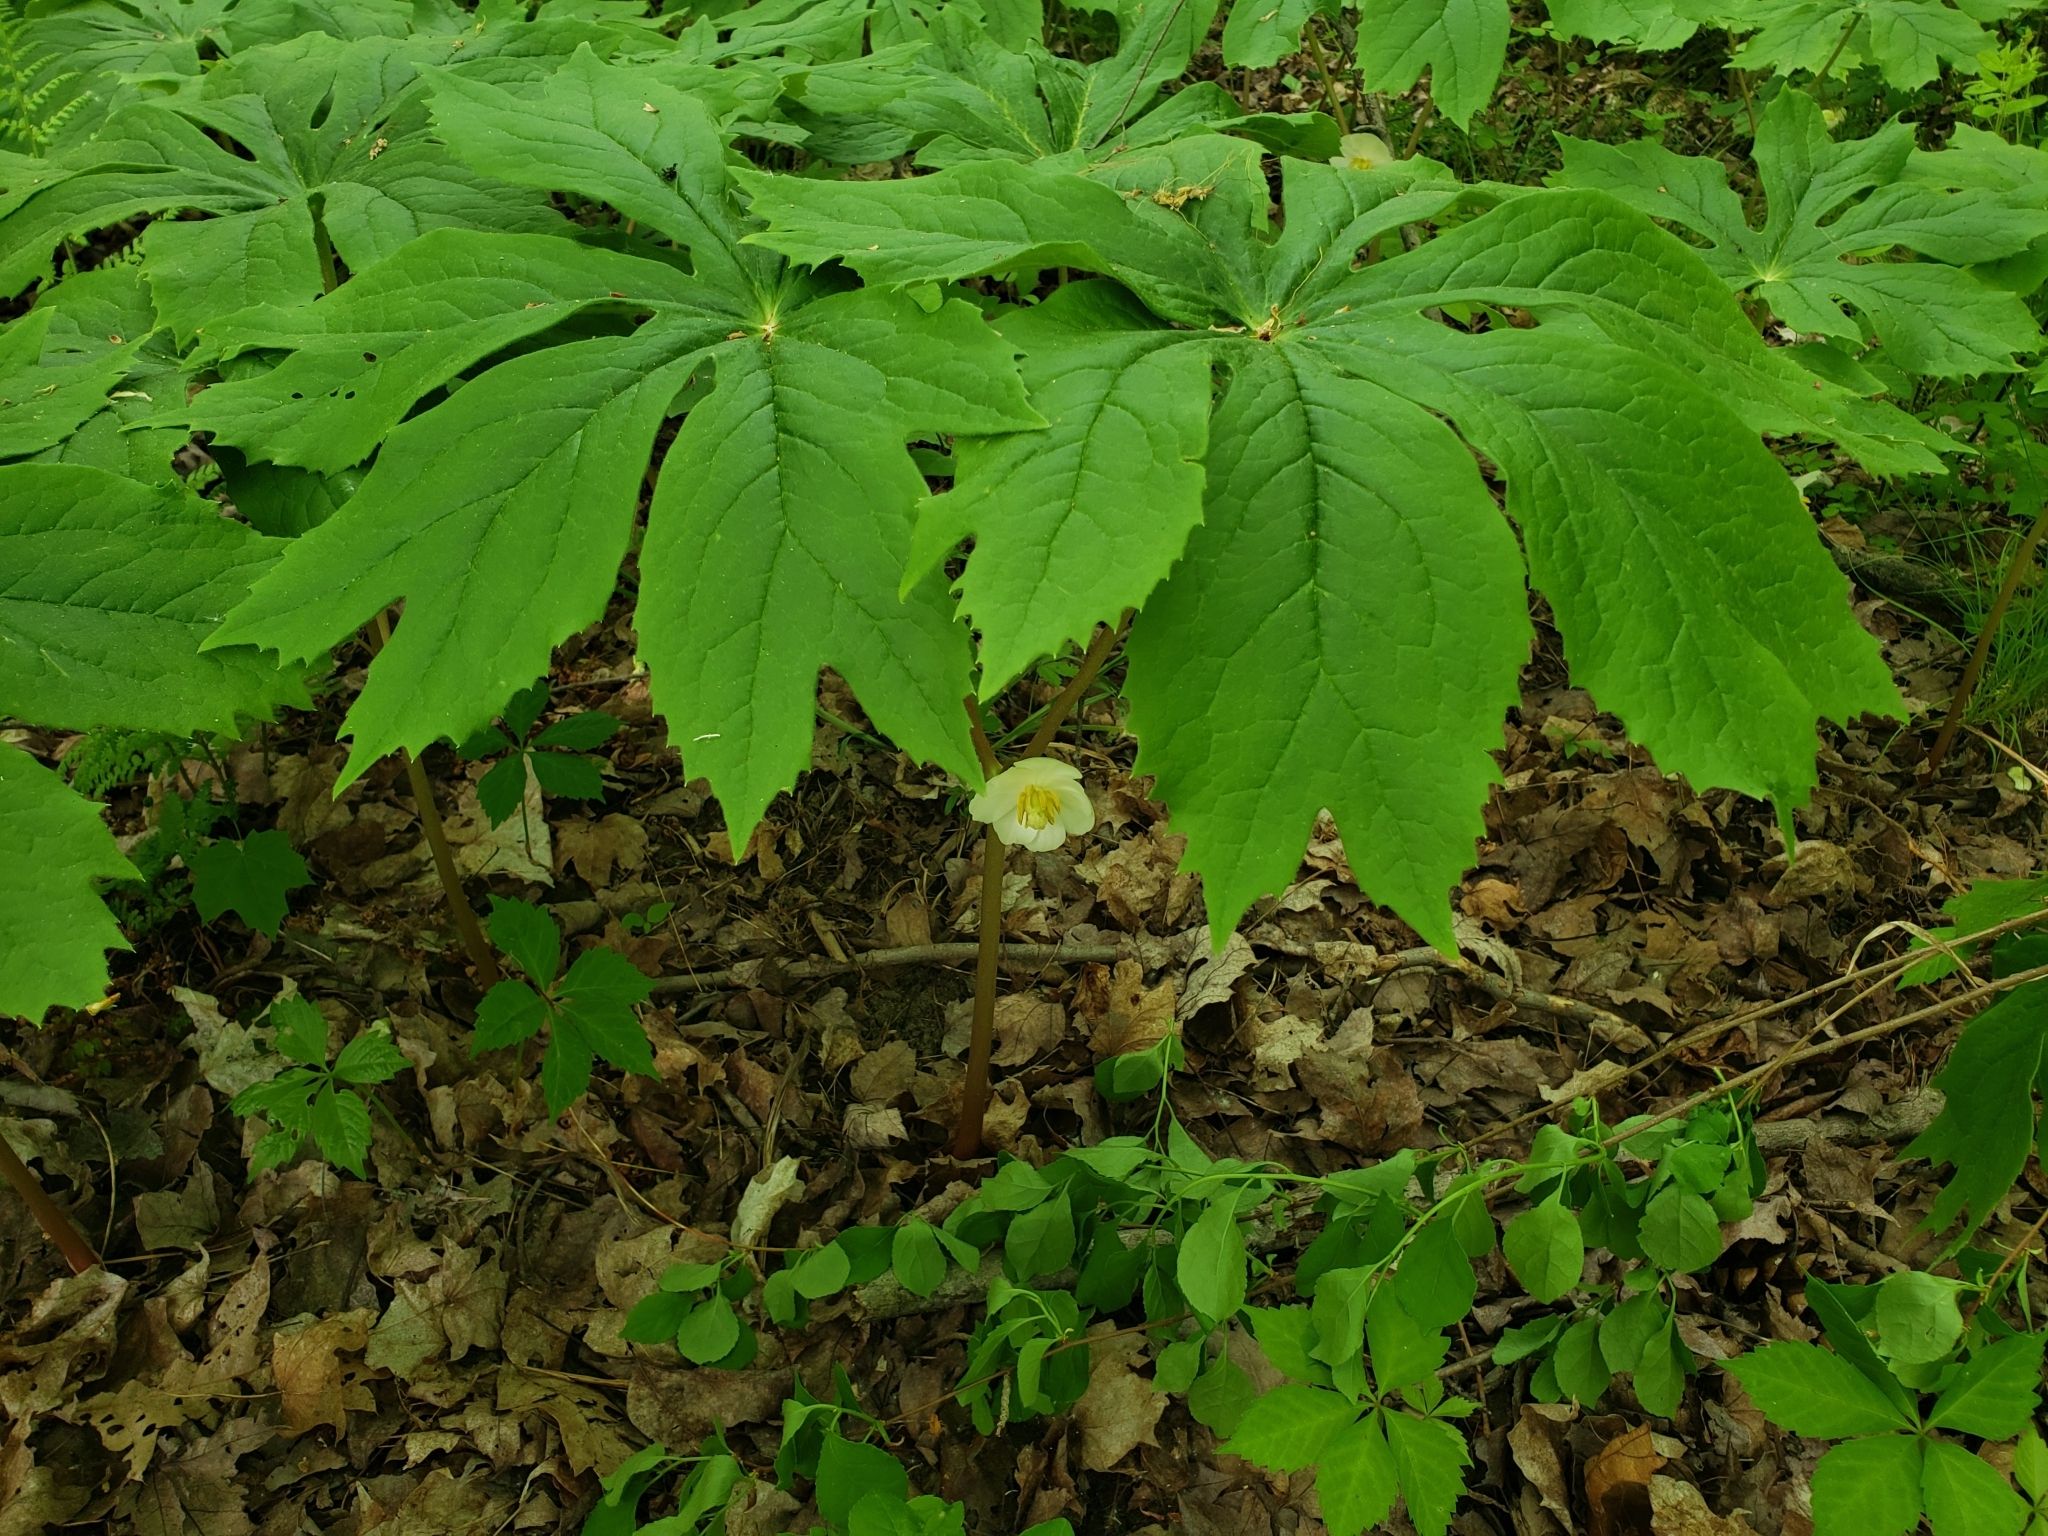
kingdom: Plantae
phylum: Tracheophyta
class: Magnoliopsida
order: Ranunculales
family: Berberidaceae
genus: Podophyllum
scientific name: Podophyllum peltatum
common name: Wild mandrake
